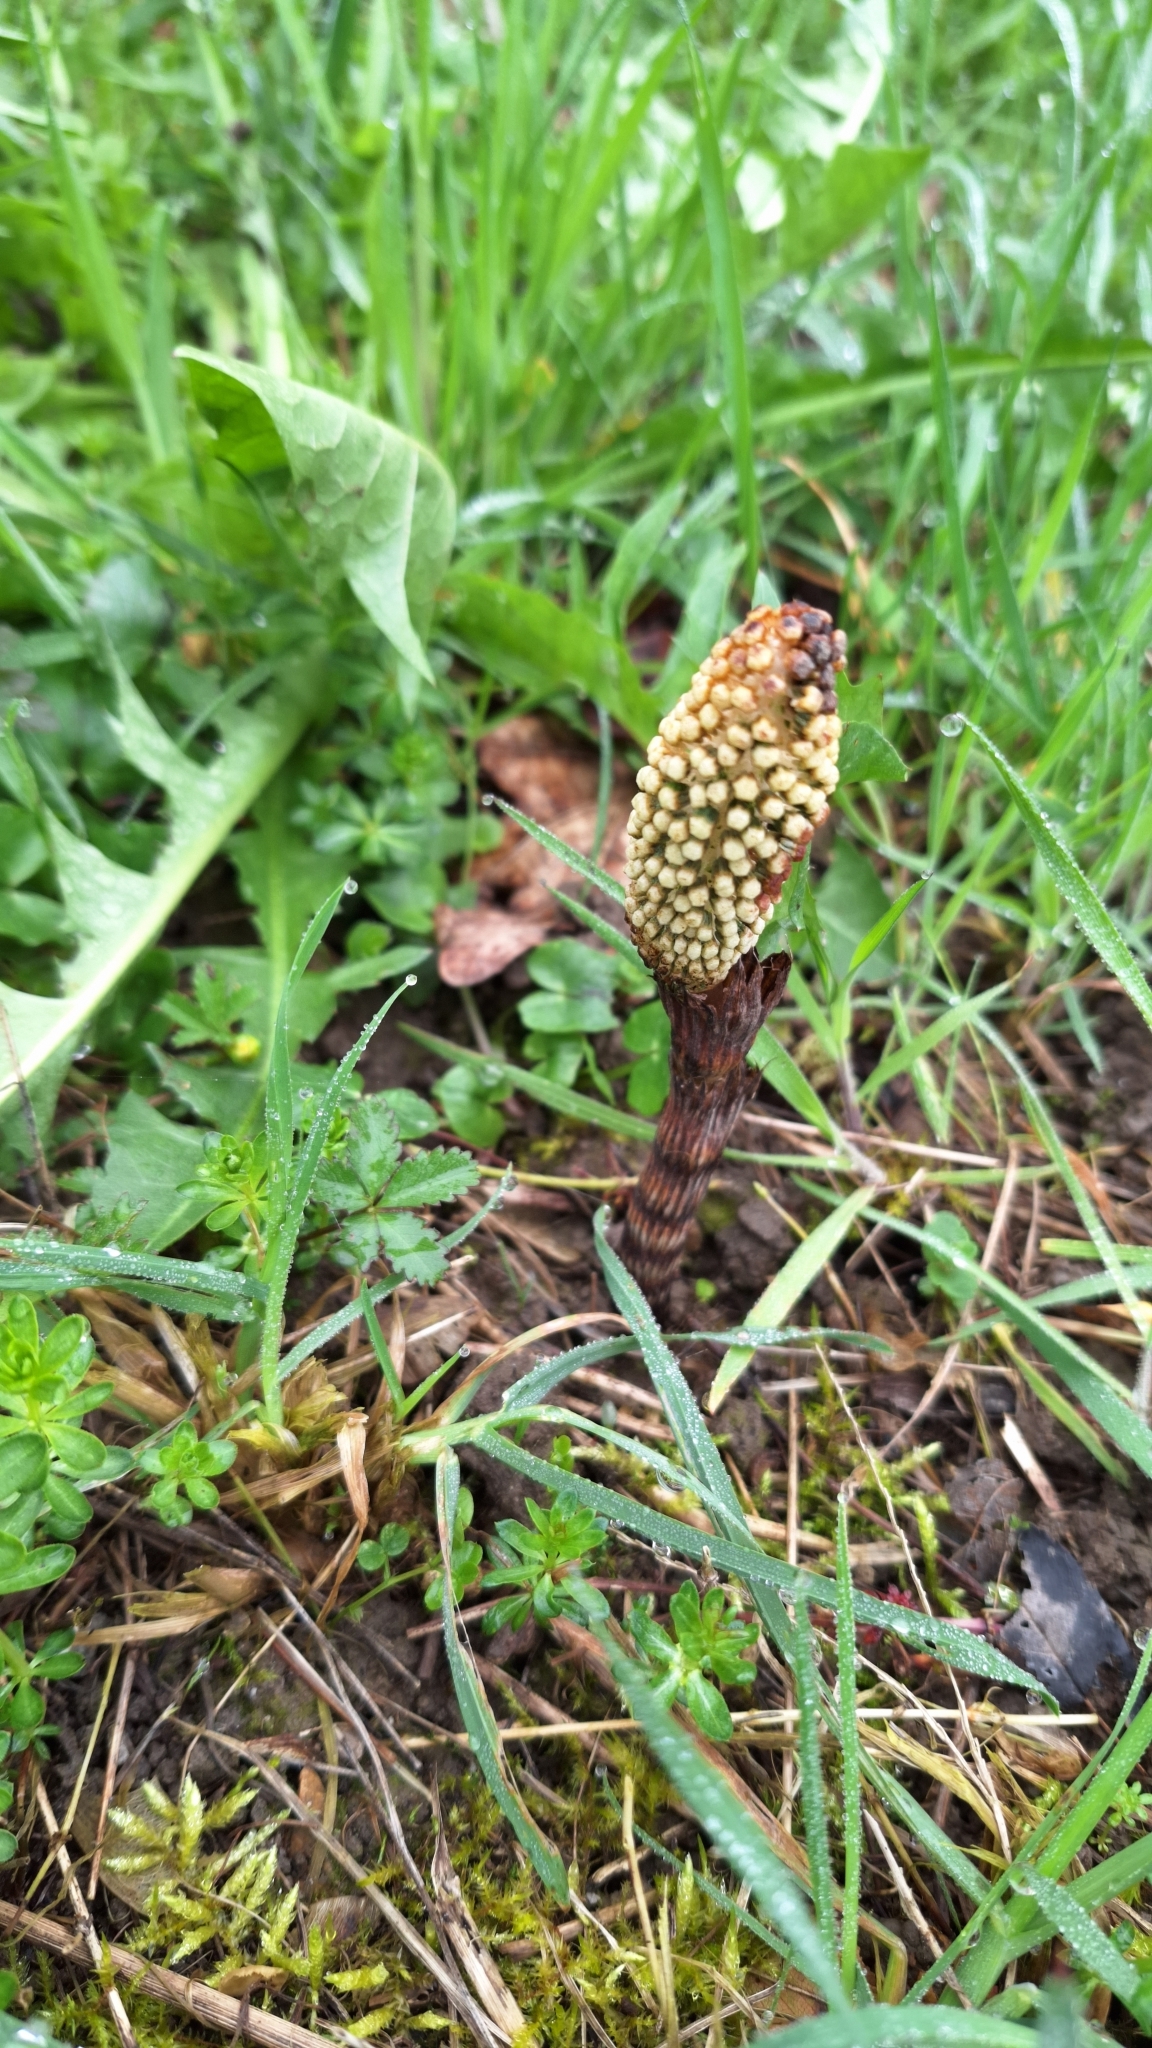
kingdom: Plantae
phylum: Tracheophyta
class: Polypodiopsida
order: Equisetales
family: Equisetaceae
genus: Equisetum
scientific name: Equisetum telmateia
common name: Great horsetail
